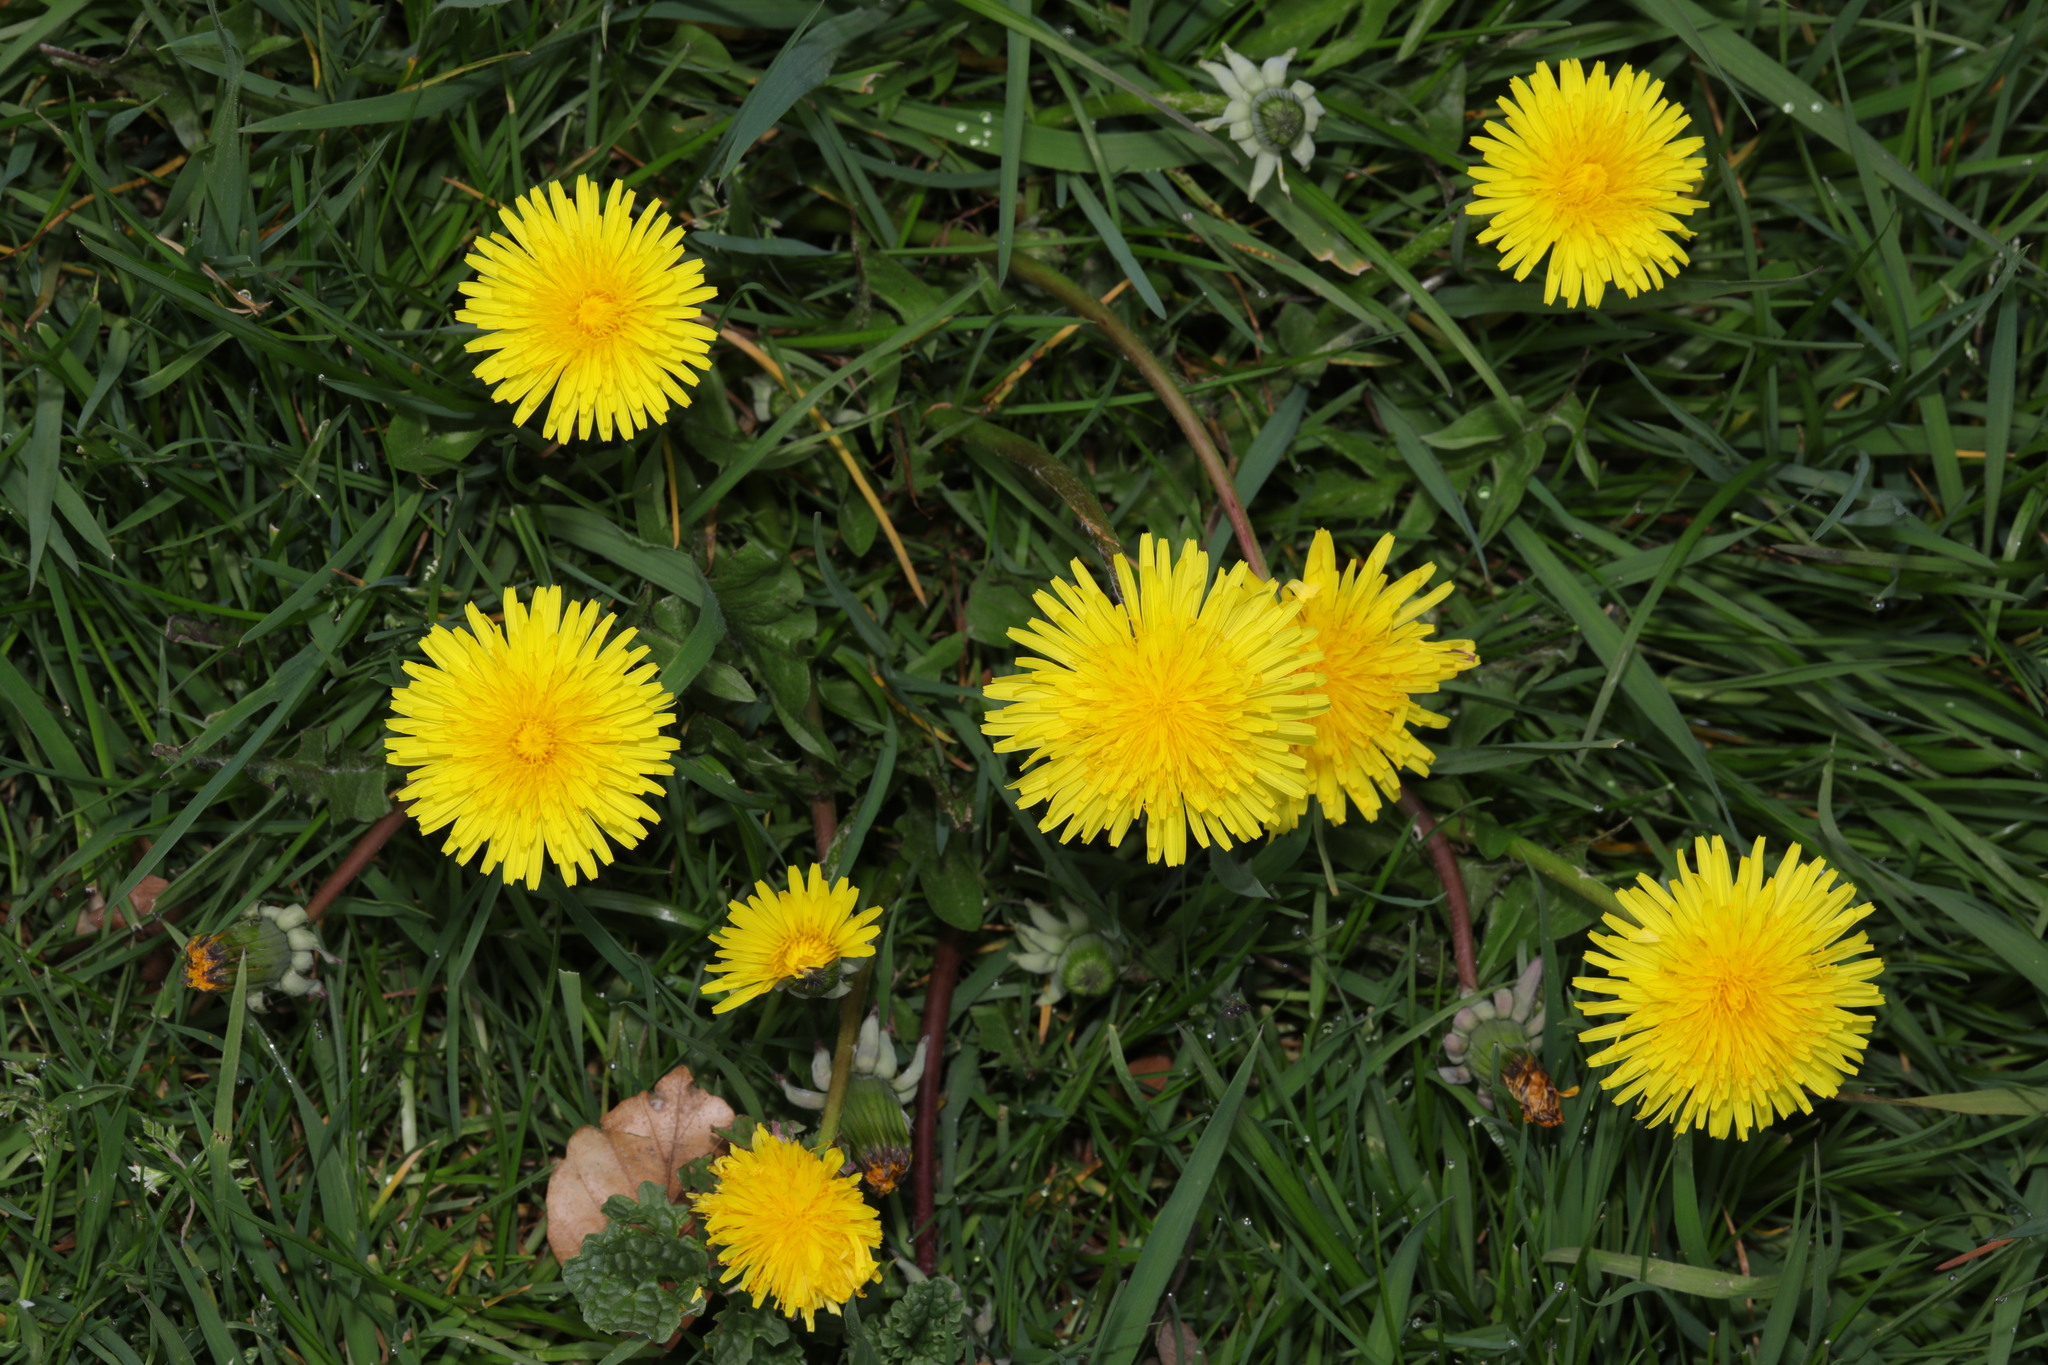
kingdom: Plantae
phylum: Tracheophyta
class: Magnoliopsida
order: Asterales
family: Asteraceae
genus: Taraxacum
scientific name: Taraxacum officinale
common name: Common dandelion
